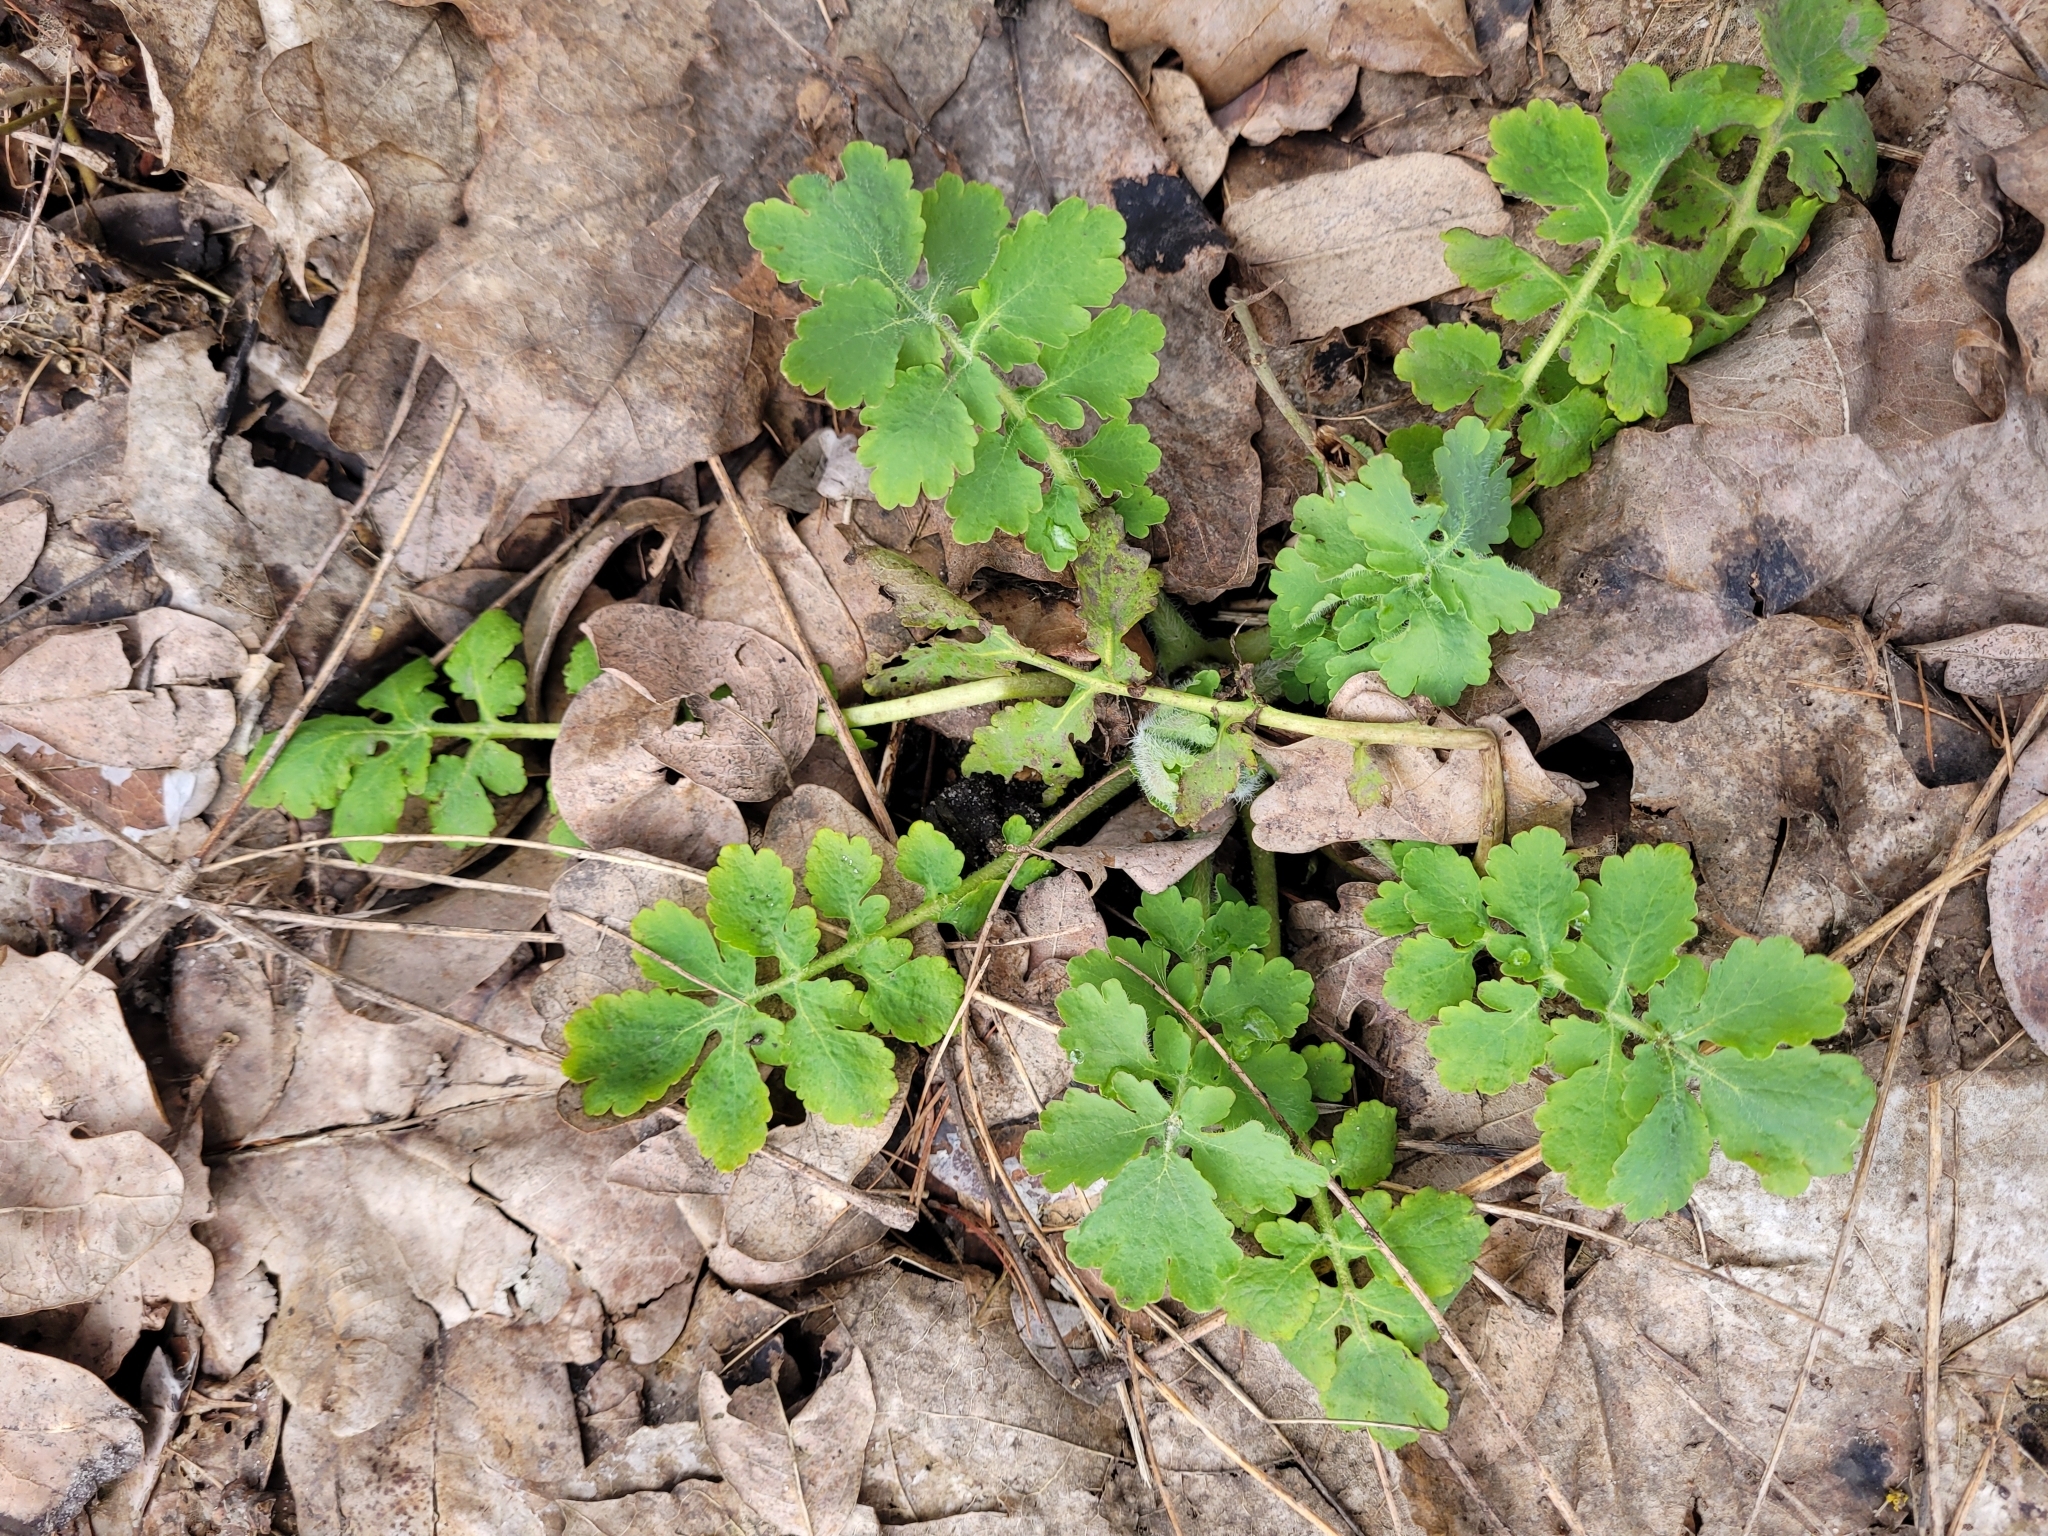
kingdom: Plantae
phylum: Tracheophyta
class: Magnoliopsida
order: Ranunculales
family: Papaveraceae
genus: Chelidonium
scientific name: Chelidonium majus
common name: Greater celandine
